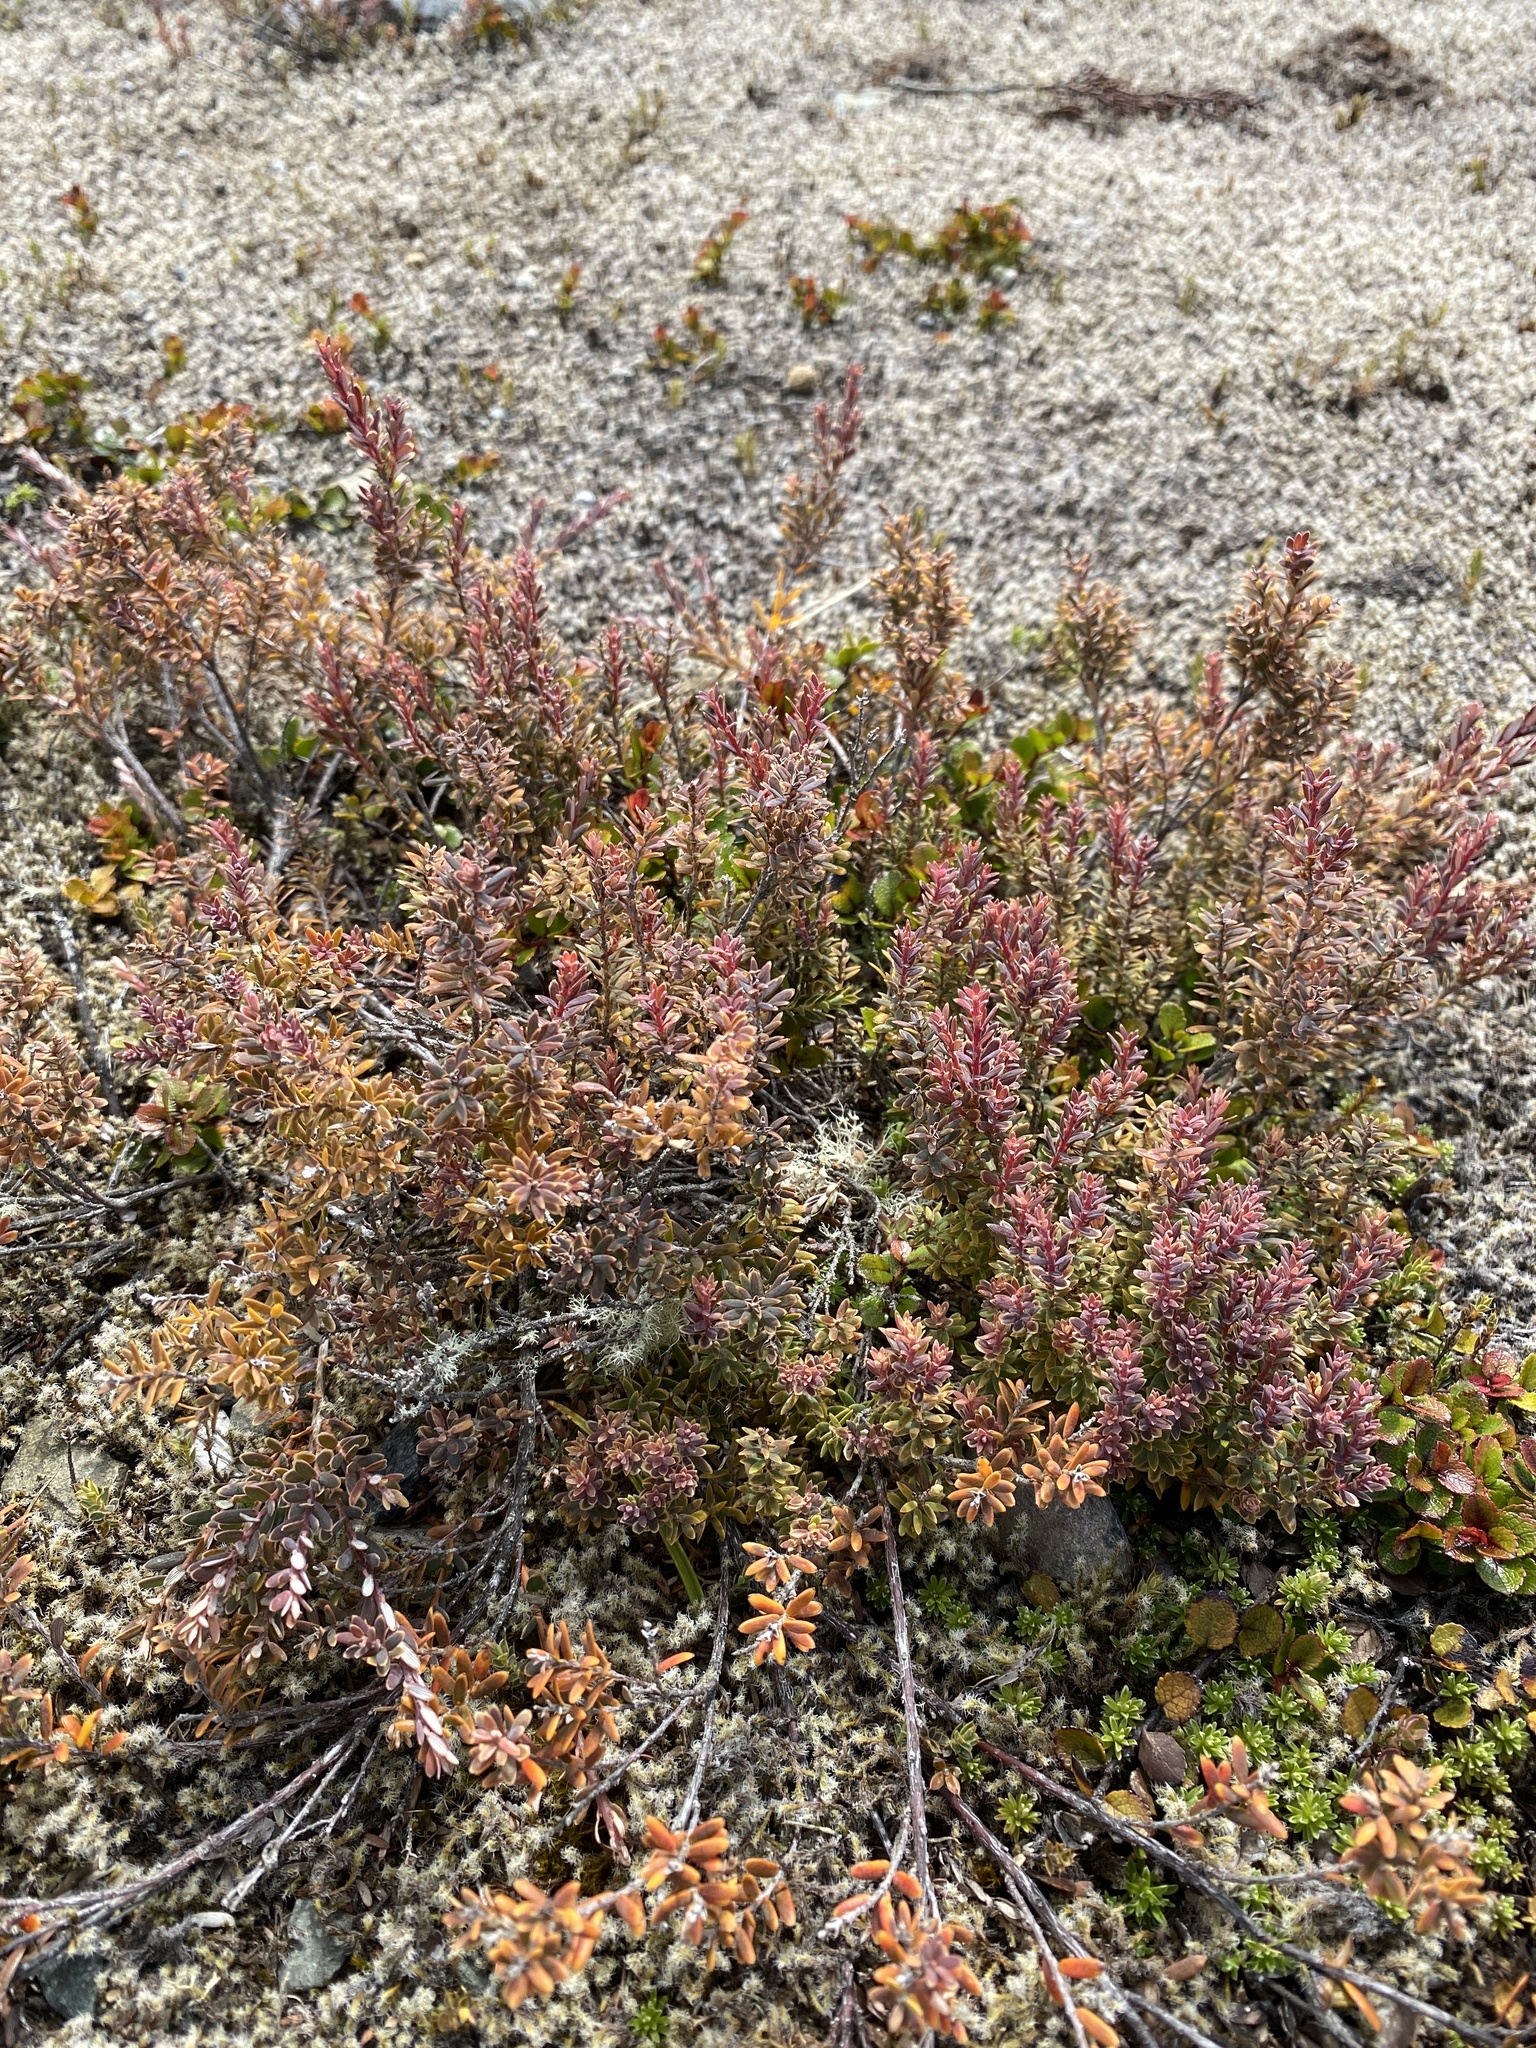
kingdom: Plantae
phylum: Tracheophyta
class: Magnoliopsida
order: Ericales
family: Ericaceae
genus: Acrothamnus
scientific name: Acrothamnus colensoi
